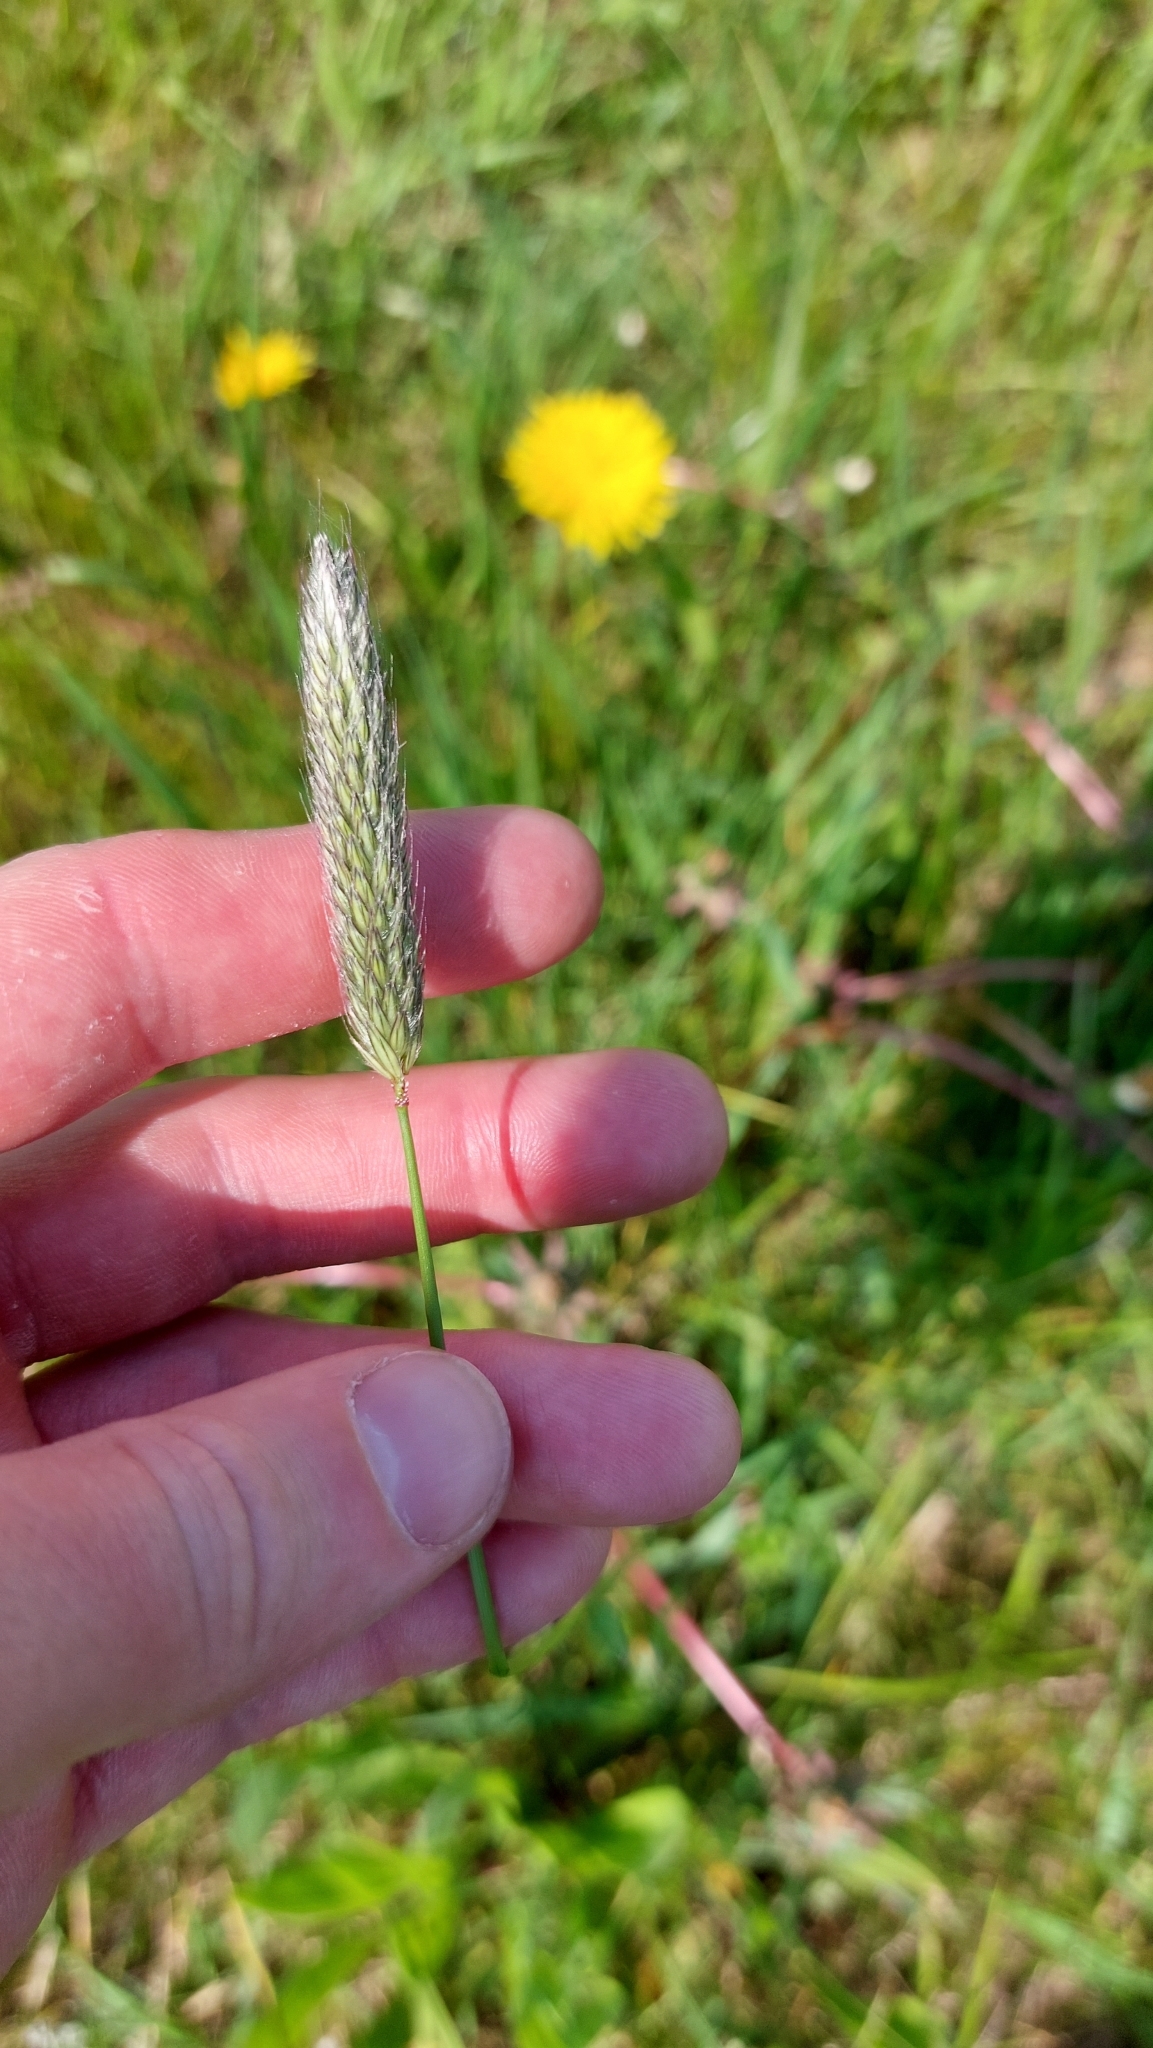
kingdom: Plantae
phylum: Tracheophyta
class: Liliopsida
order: Poales
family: Poaceae
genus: Alopecurus
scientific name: Alopecurus pratensis
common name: Meadow foxtail
